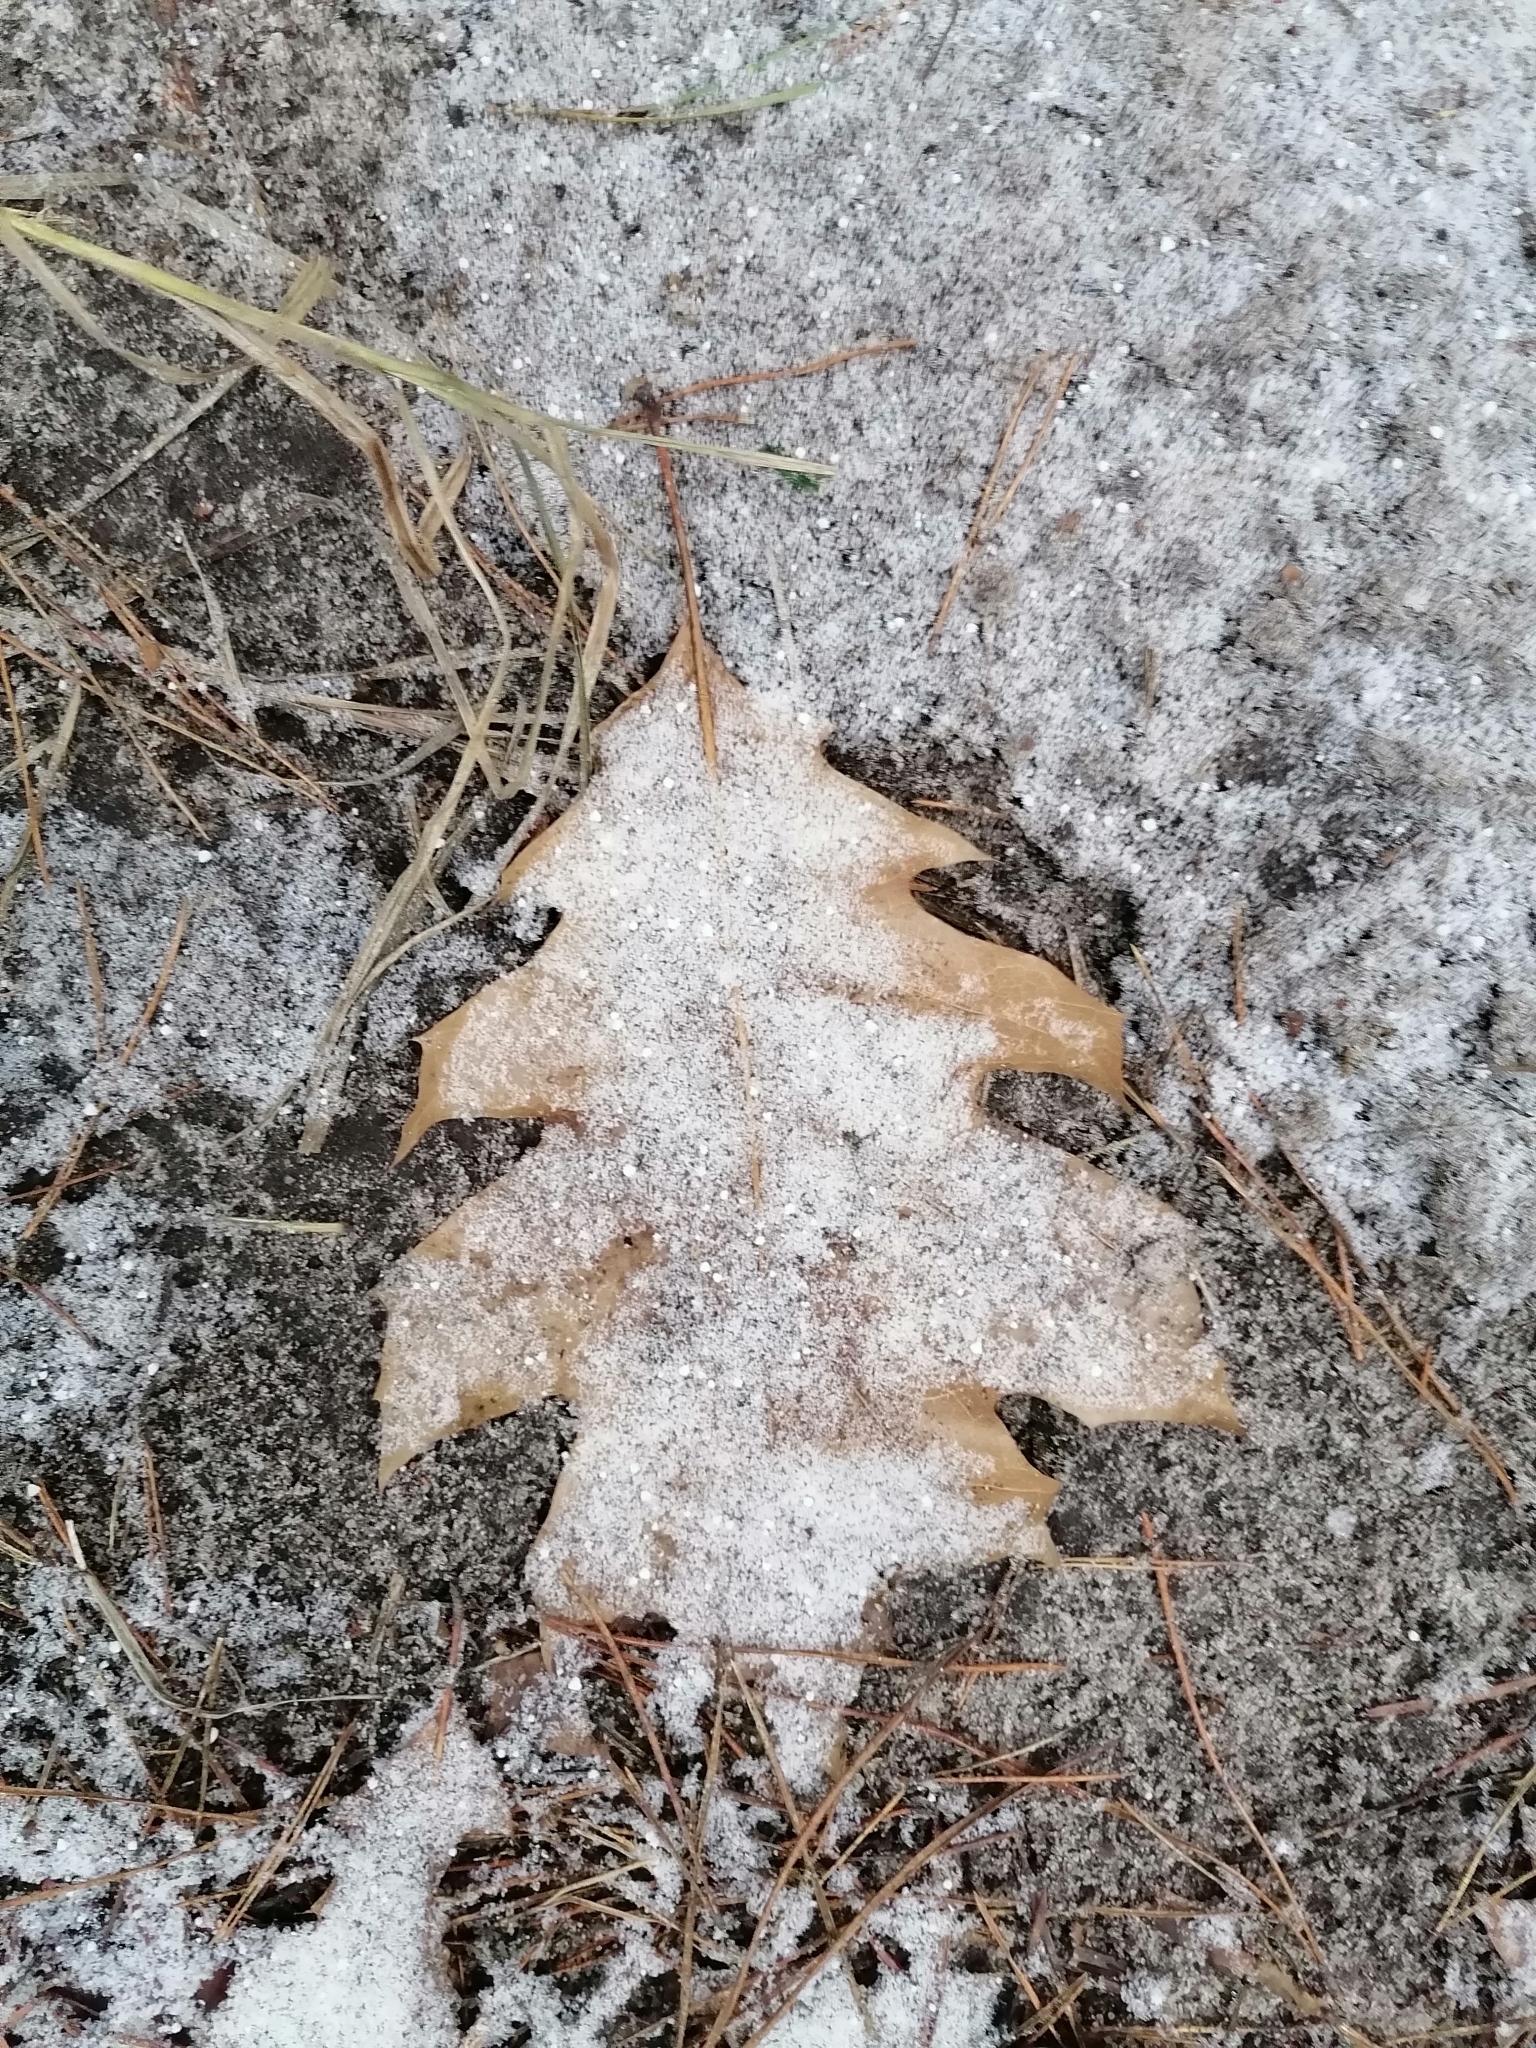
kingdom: Plantae
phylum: Tracheophyta
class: Magnoliopsida
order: Fagales
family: Fagaceae
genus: Quercus
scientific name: Quercus rubra
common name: Red oak
